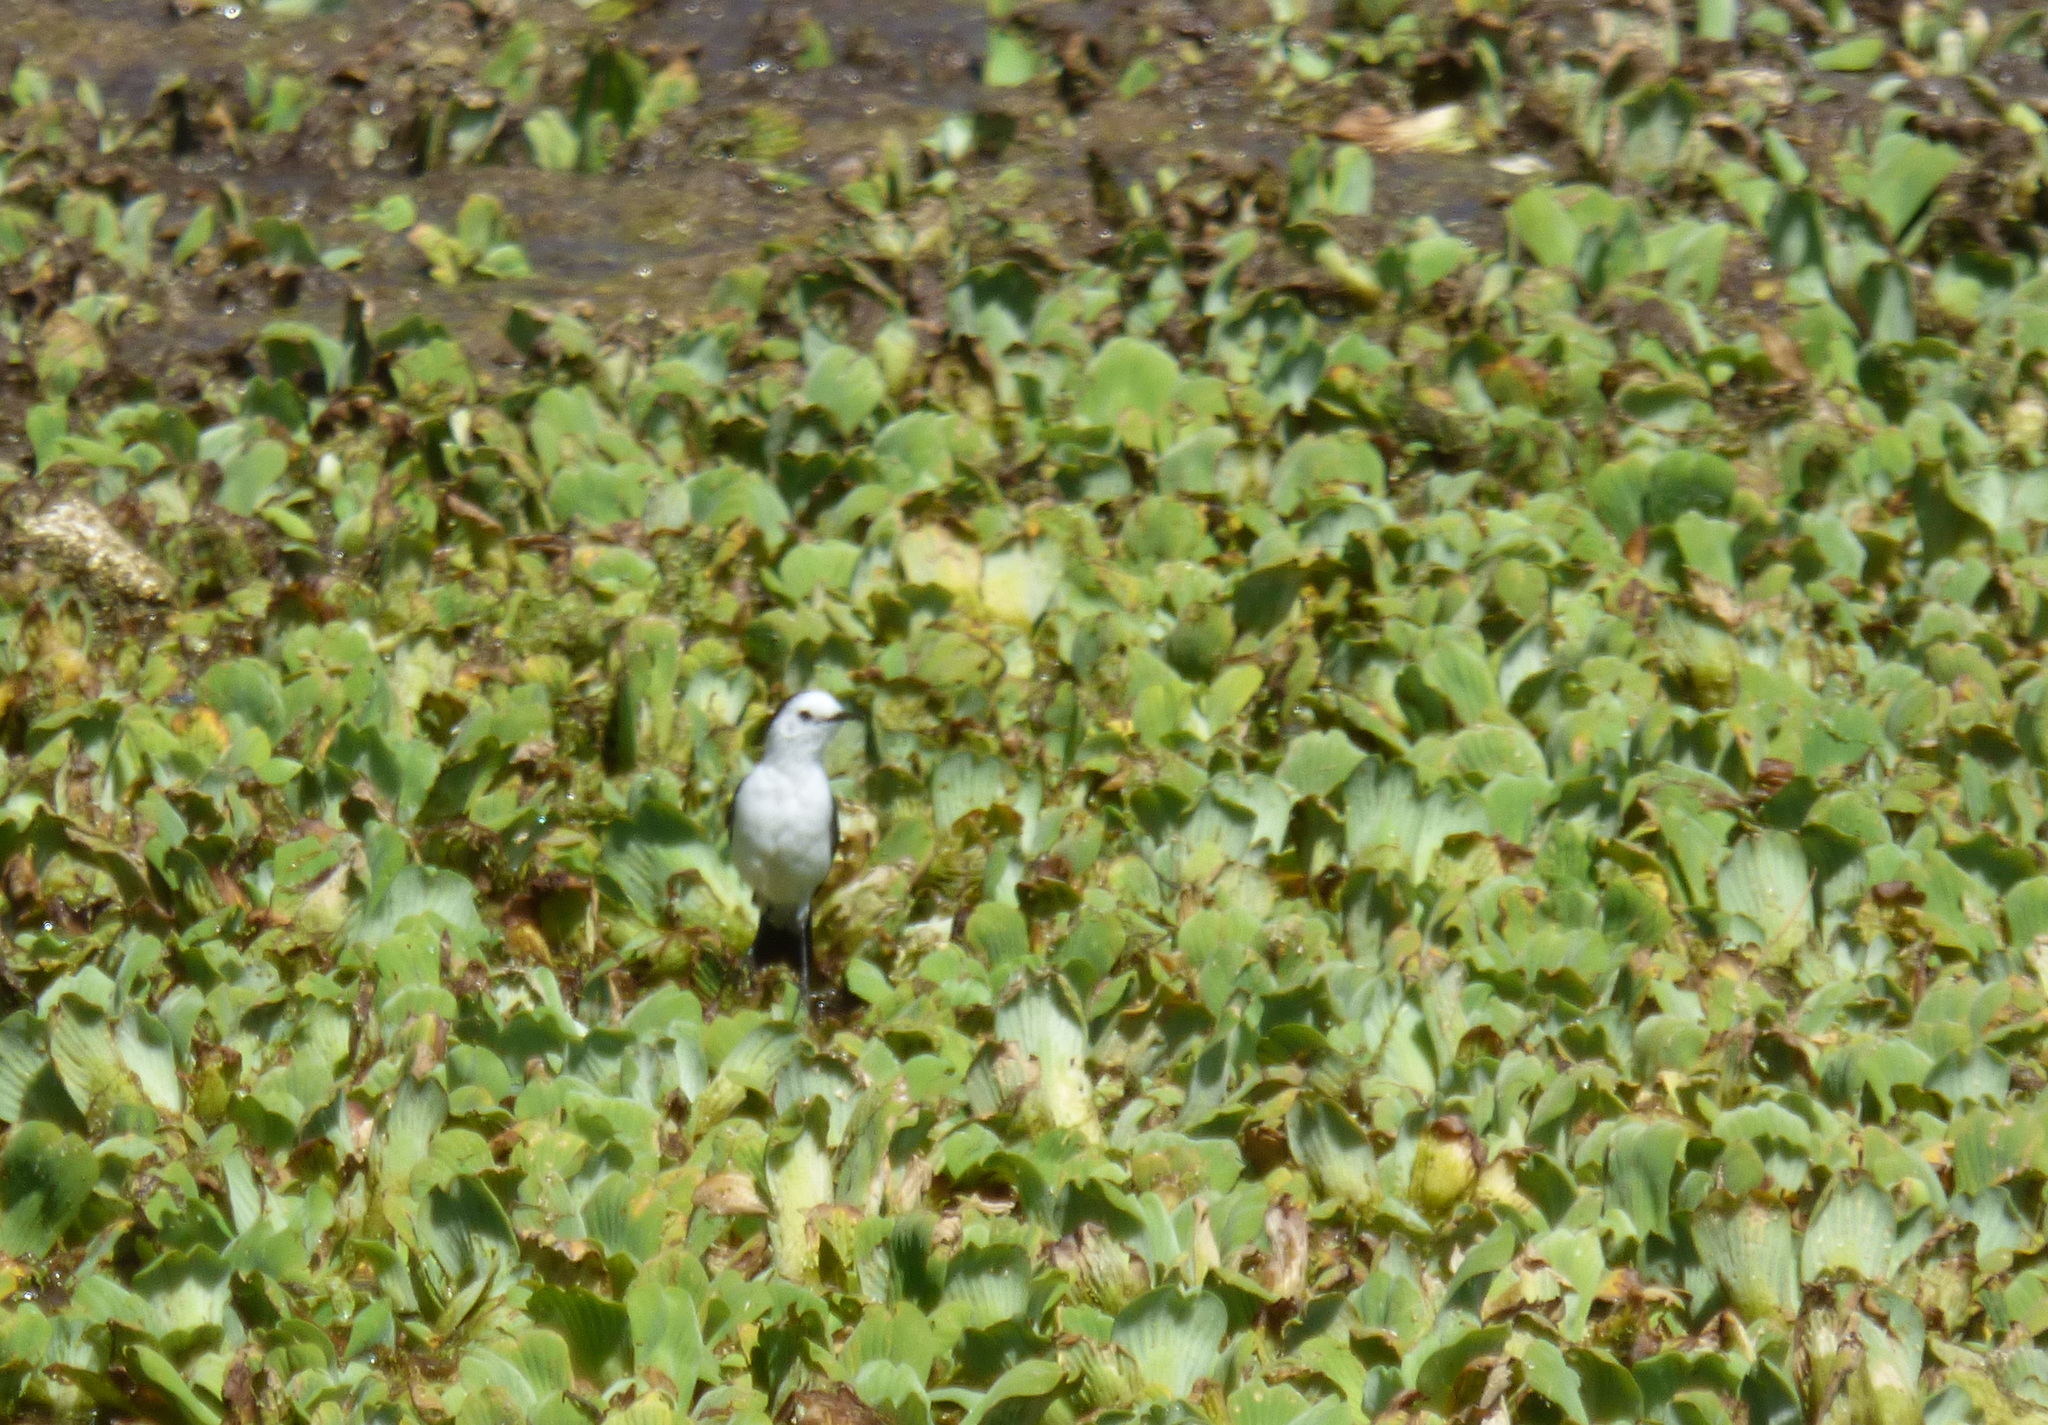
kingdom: Animalia
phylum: Chordata
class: Aves
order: Passeriformes
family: Tyrannidae
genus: Fluvicola
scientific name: Fluvicola pica
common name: Pied water-tyrant
